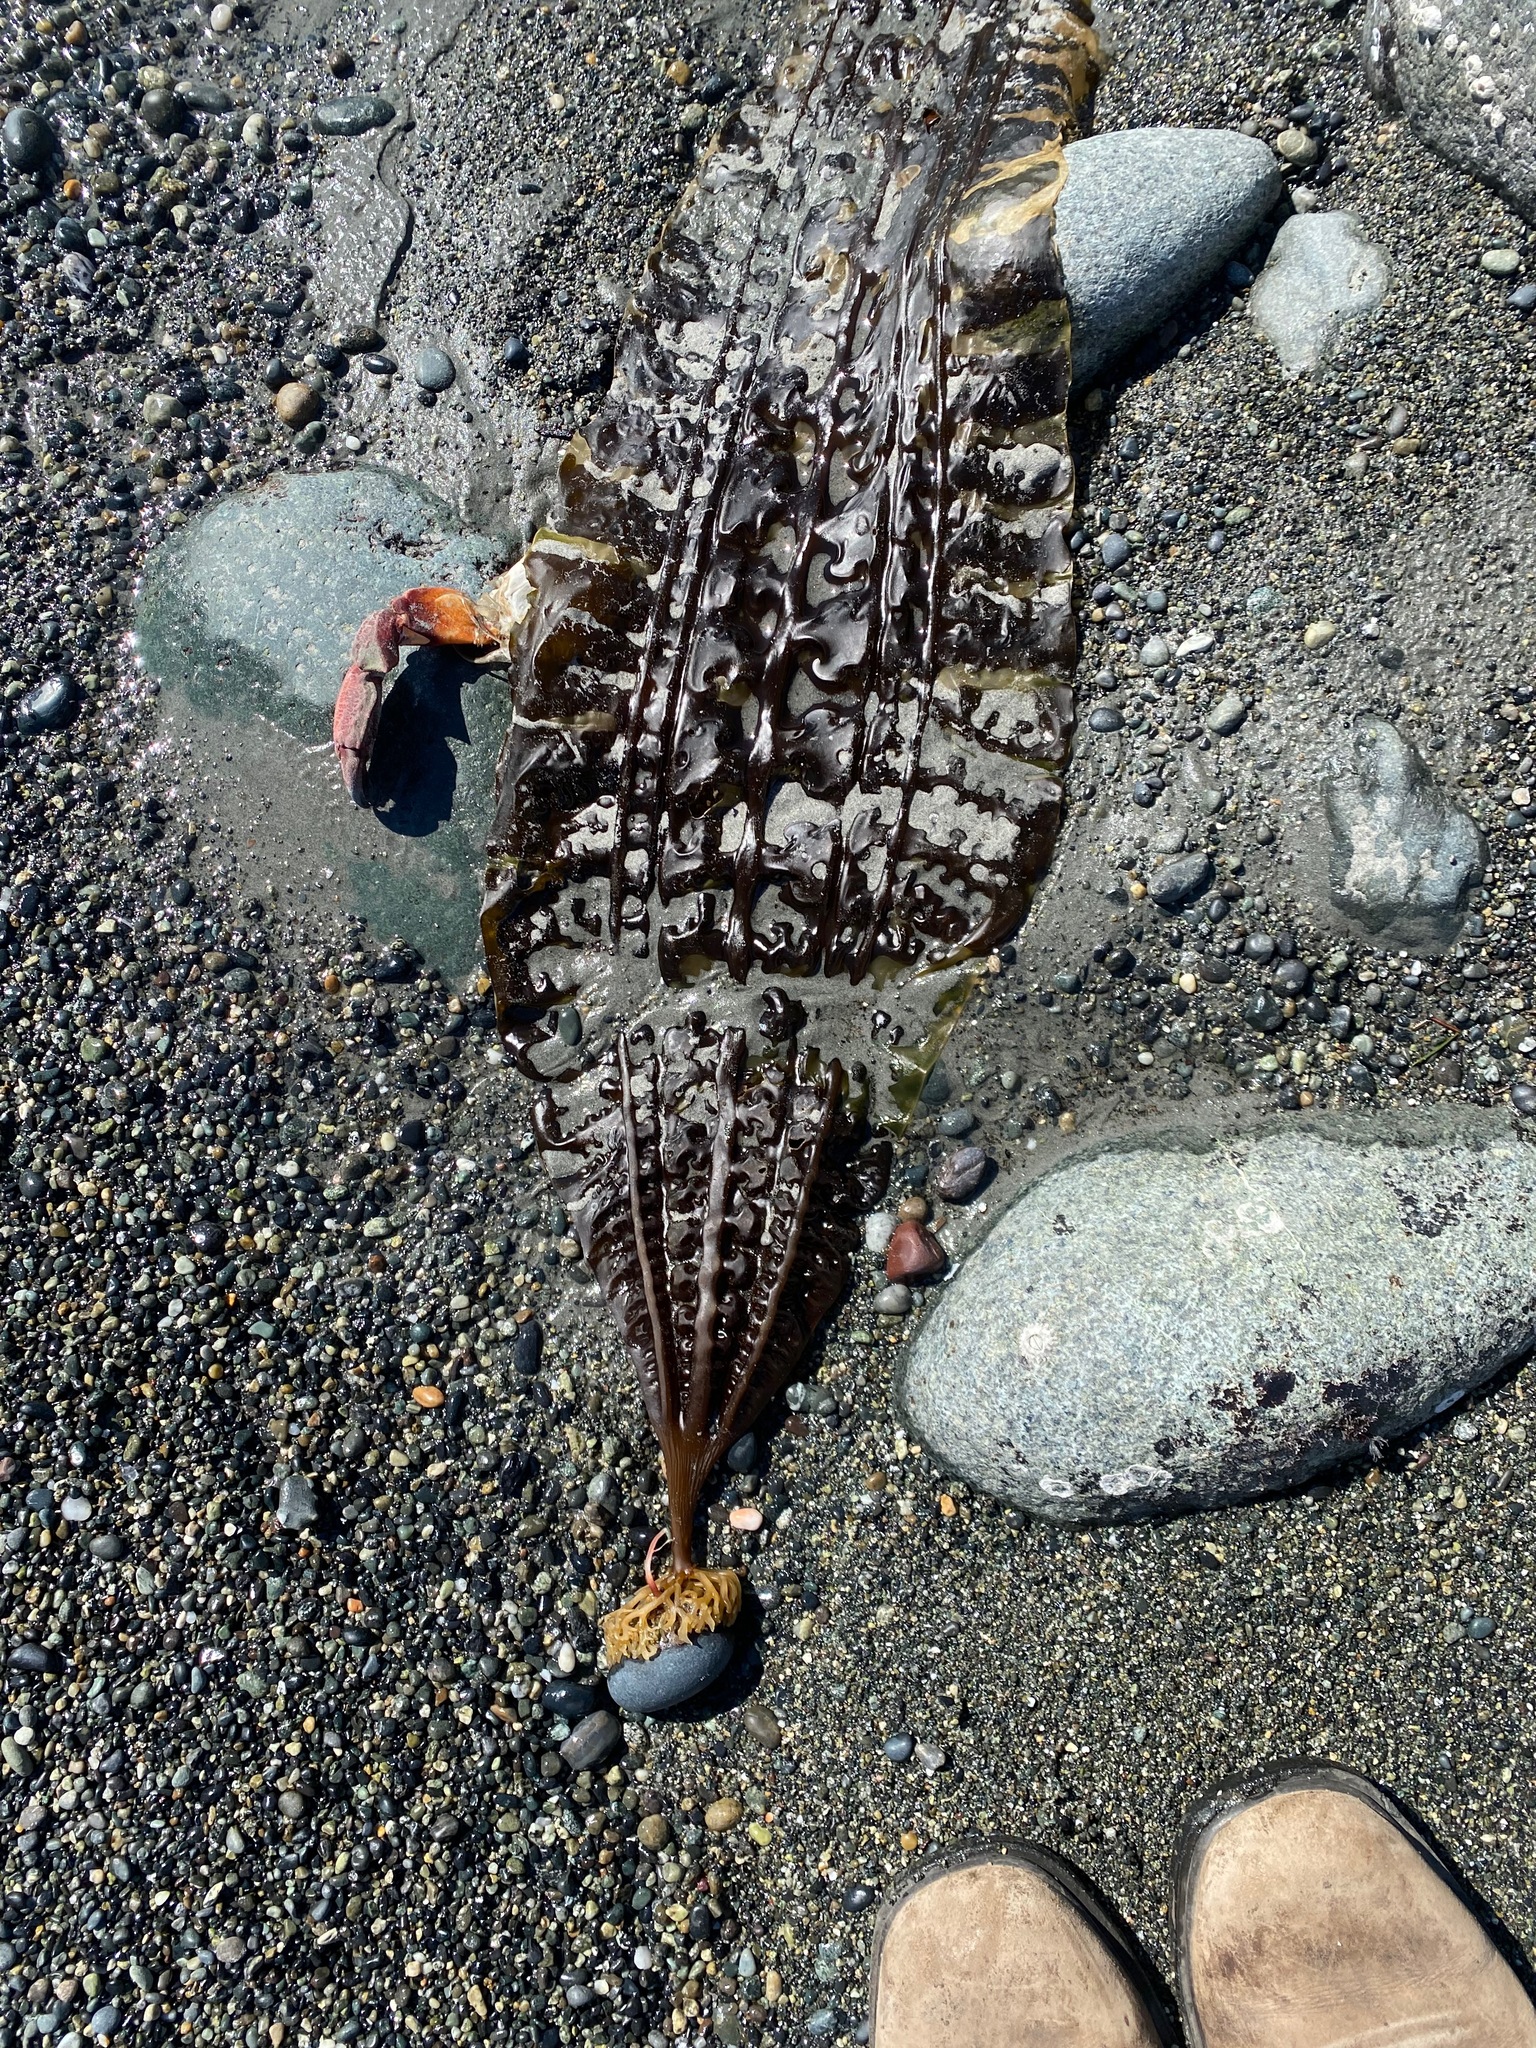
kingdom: Chromista
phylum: Ochrophyta
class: Phaeophyceae
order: Laminariales
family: Costariaceae
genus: Costaria
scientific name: Costaria costata
